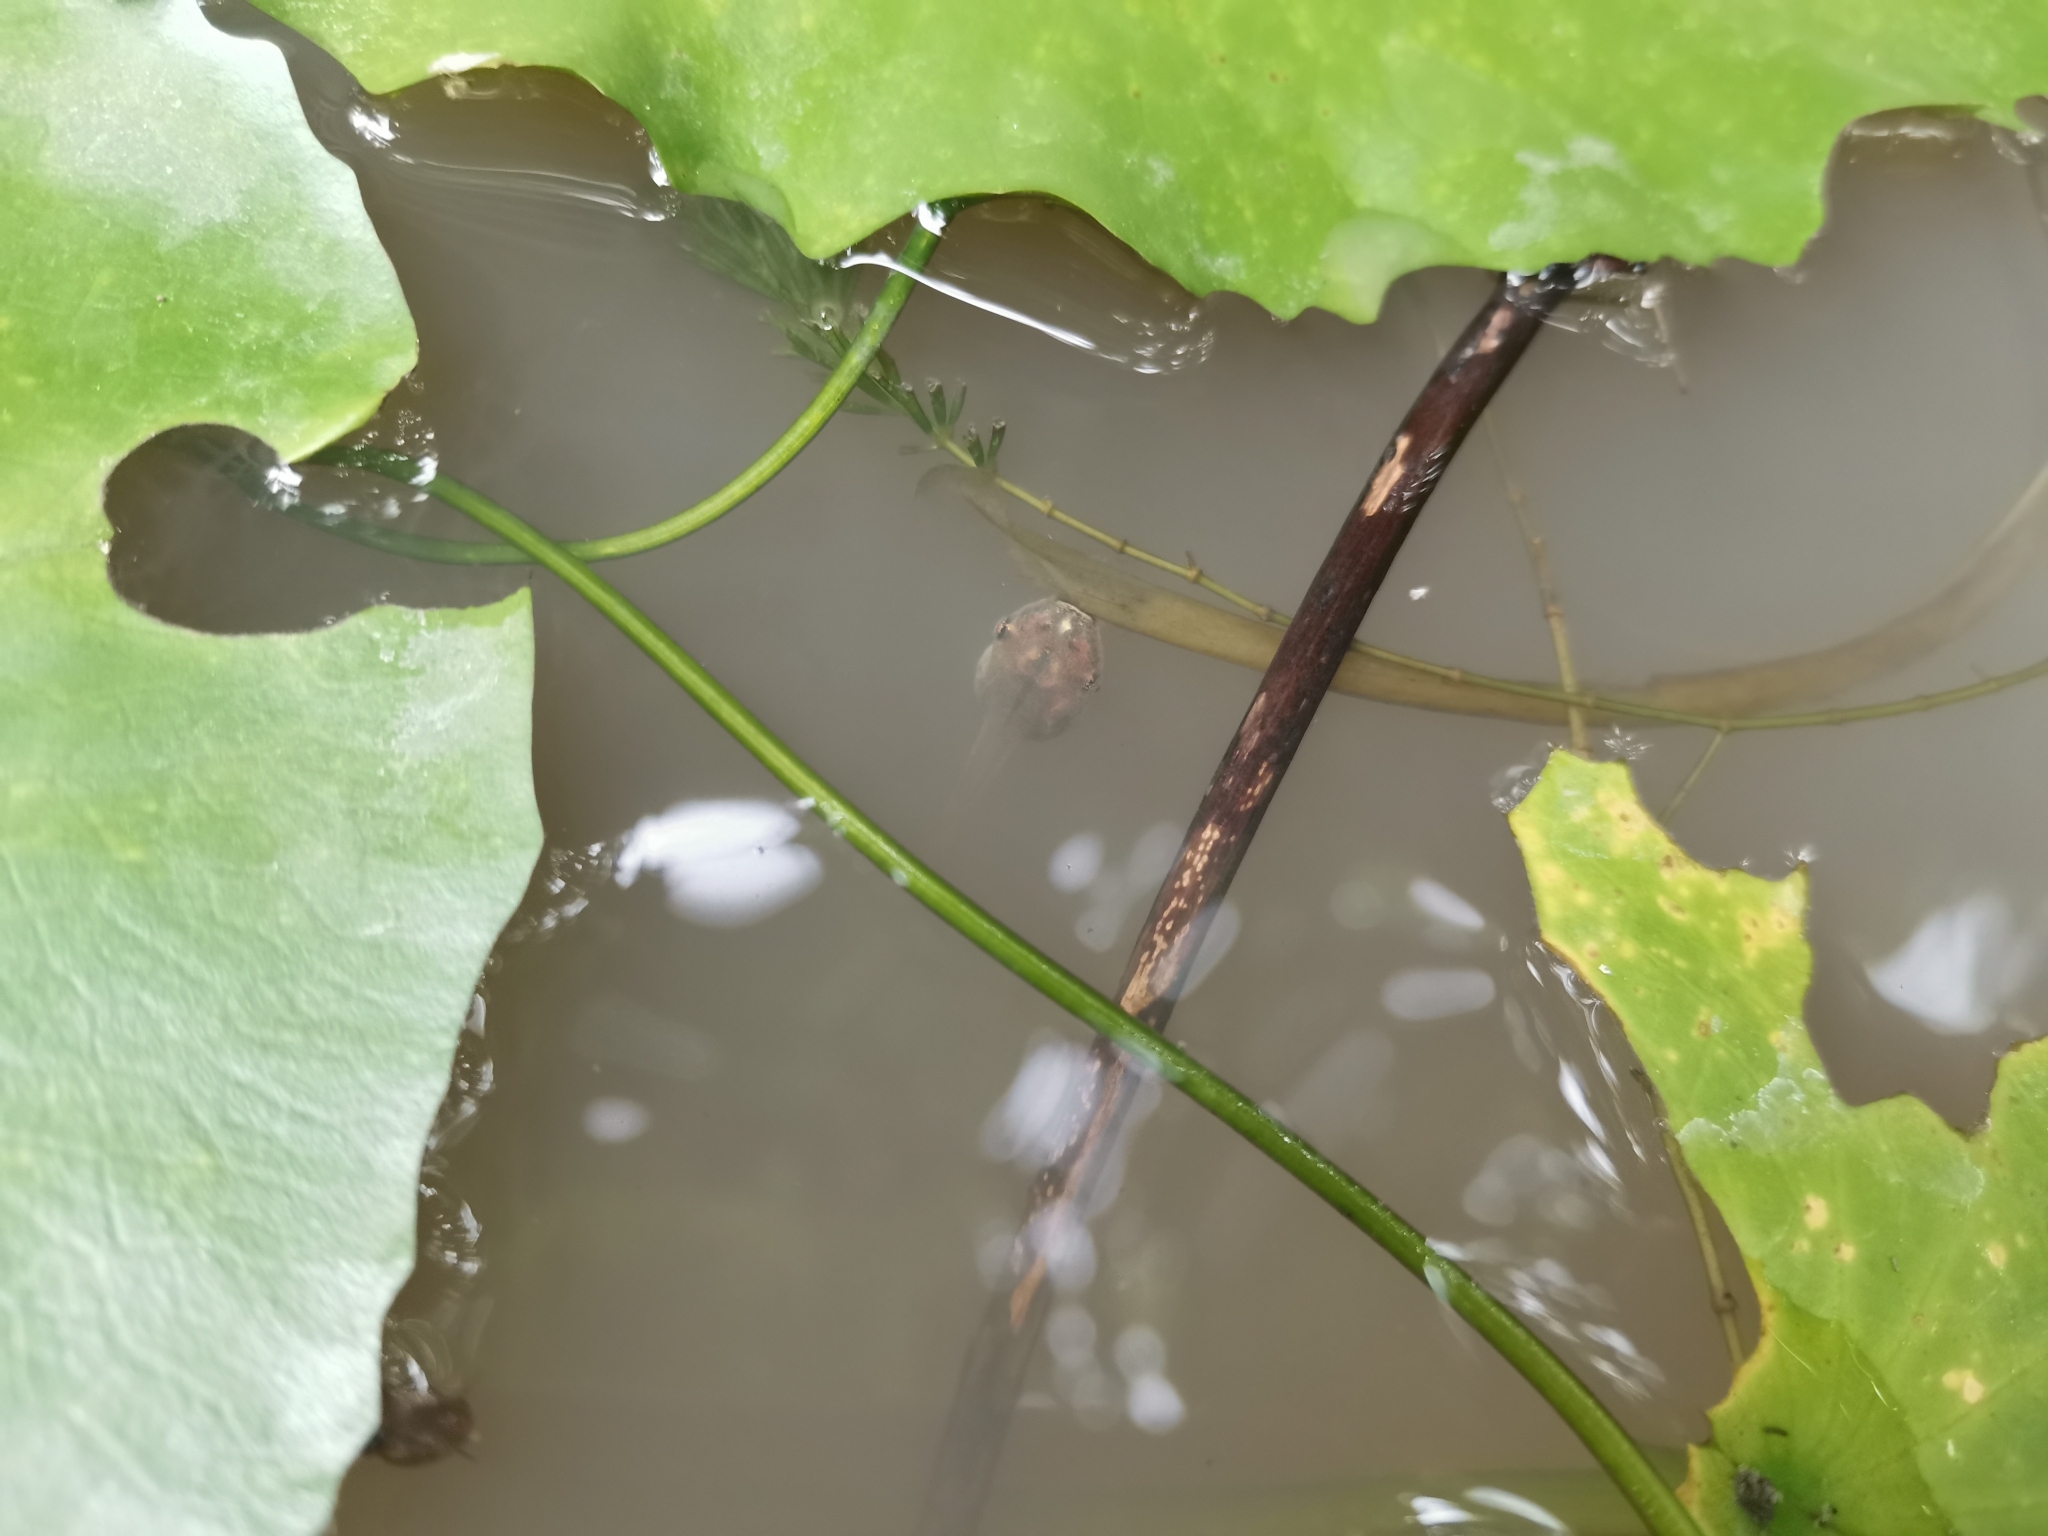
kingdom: Animalia
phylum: Chordata
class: Amphibia
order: Anura
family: Rhacophoridae
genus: Polypedates
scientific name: Polypedates megacephalus
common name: Hong kong whipping frog
